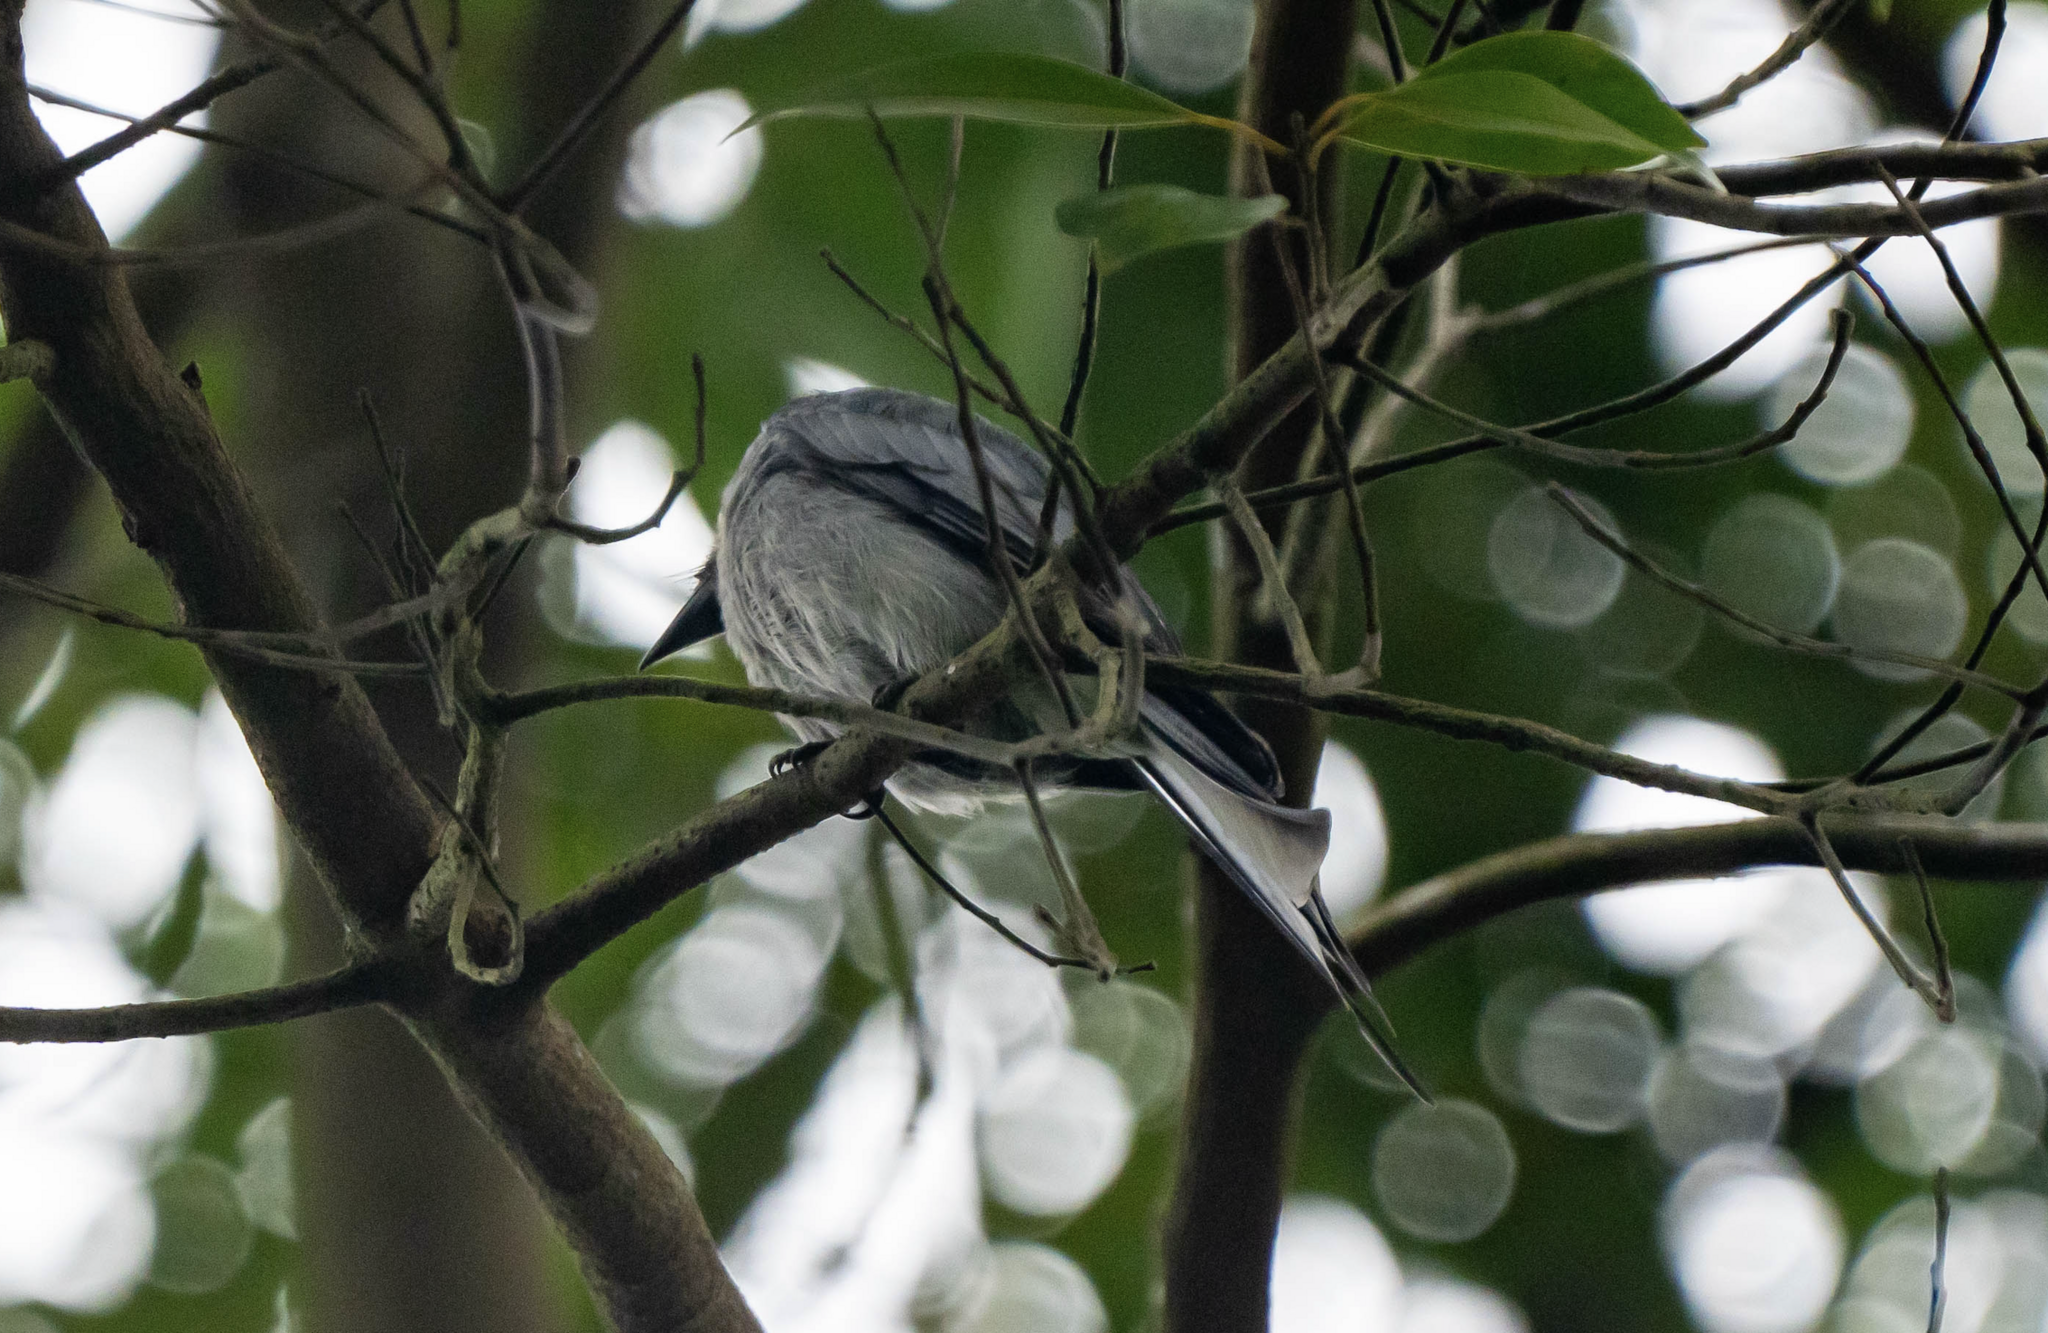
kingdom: Animalia
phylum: Chordata
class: Aves
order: Passeriformes
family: Dicruridae
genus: Dicrurus
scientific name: Dicrurus leucophaeus
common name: Ashy drongo
